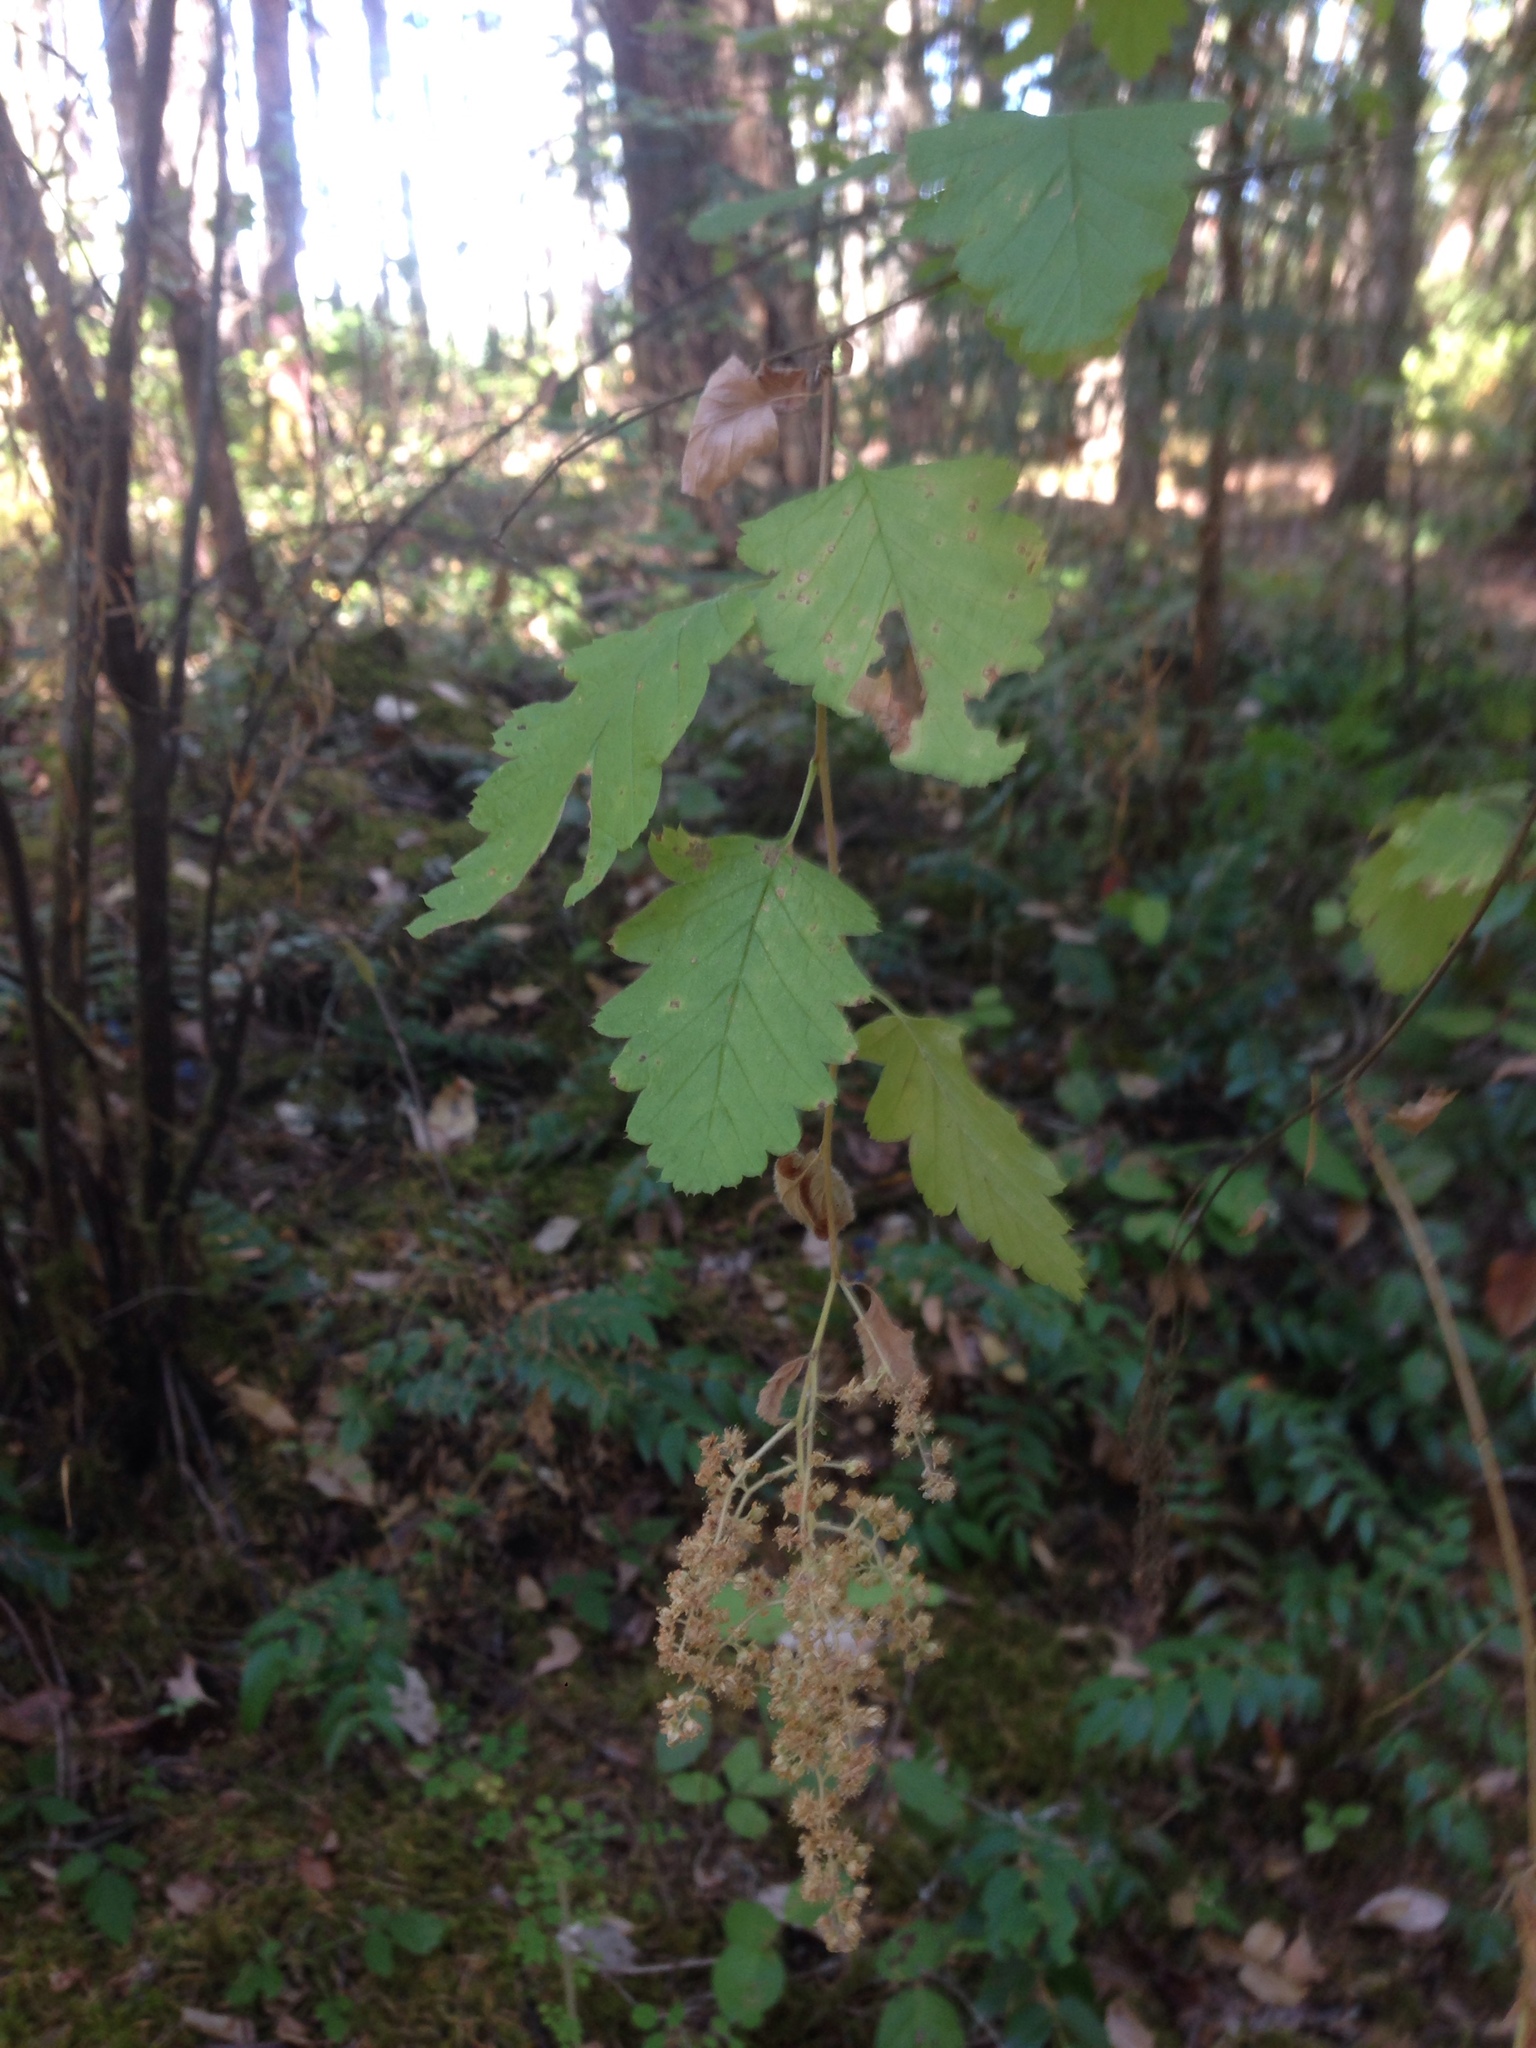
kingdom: Plantae
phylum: Tracheophyta
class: Magnoliopsida
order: Rosales
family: Rosaceae
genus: Holodiscus
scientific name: Holodiscus discolor
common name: Oceanspray
